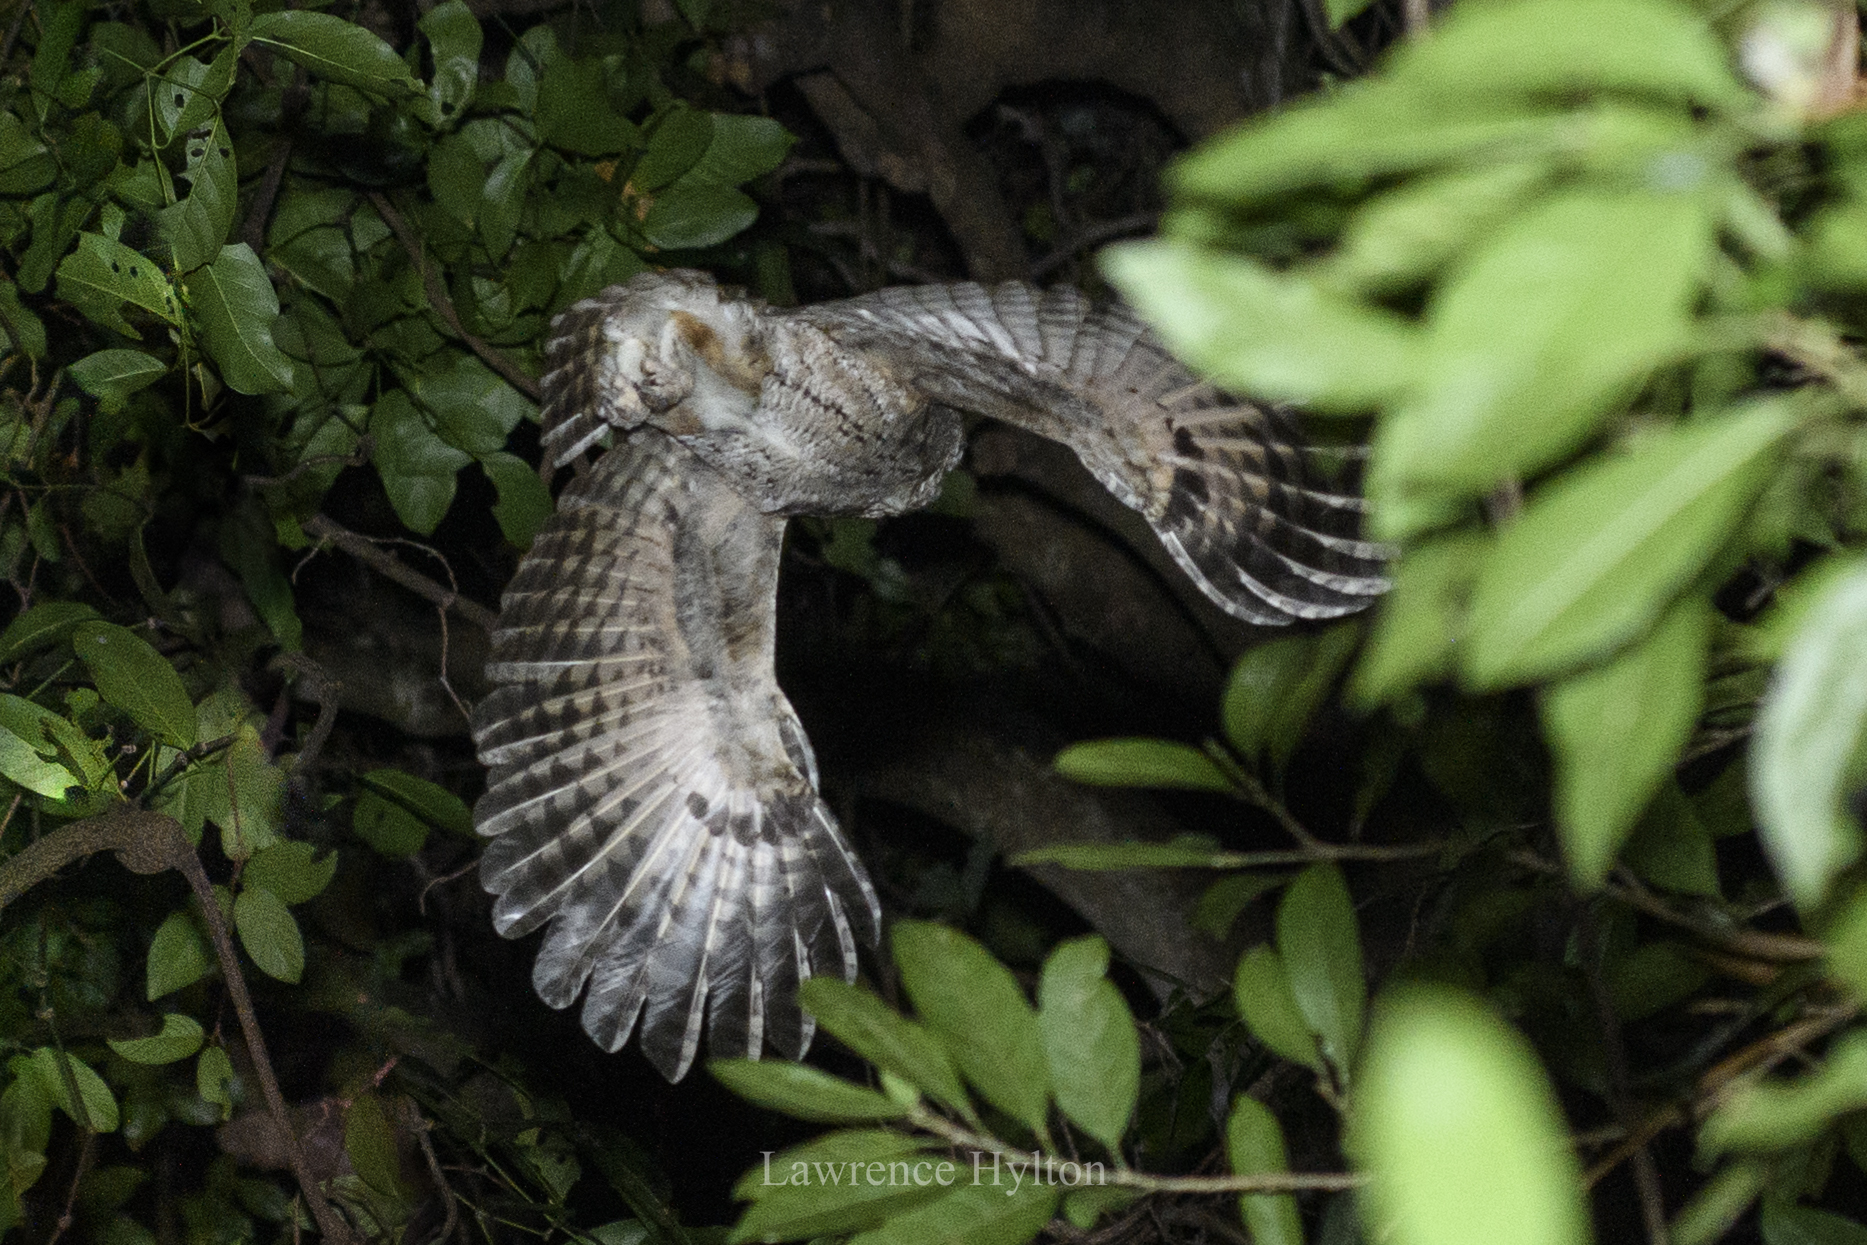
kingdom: Animalia
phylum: Chordata
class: Aves
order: Strigiformes
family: Strigidae
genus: Otus
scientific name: Otus lettia
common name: Collared scops owl
